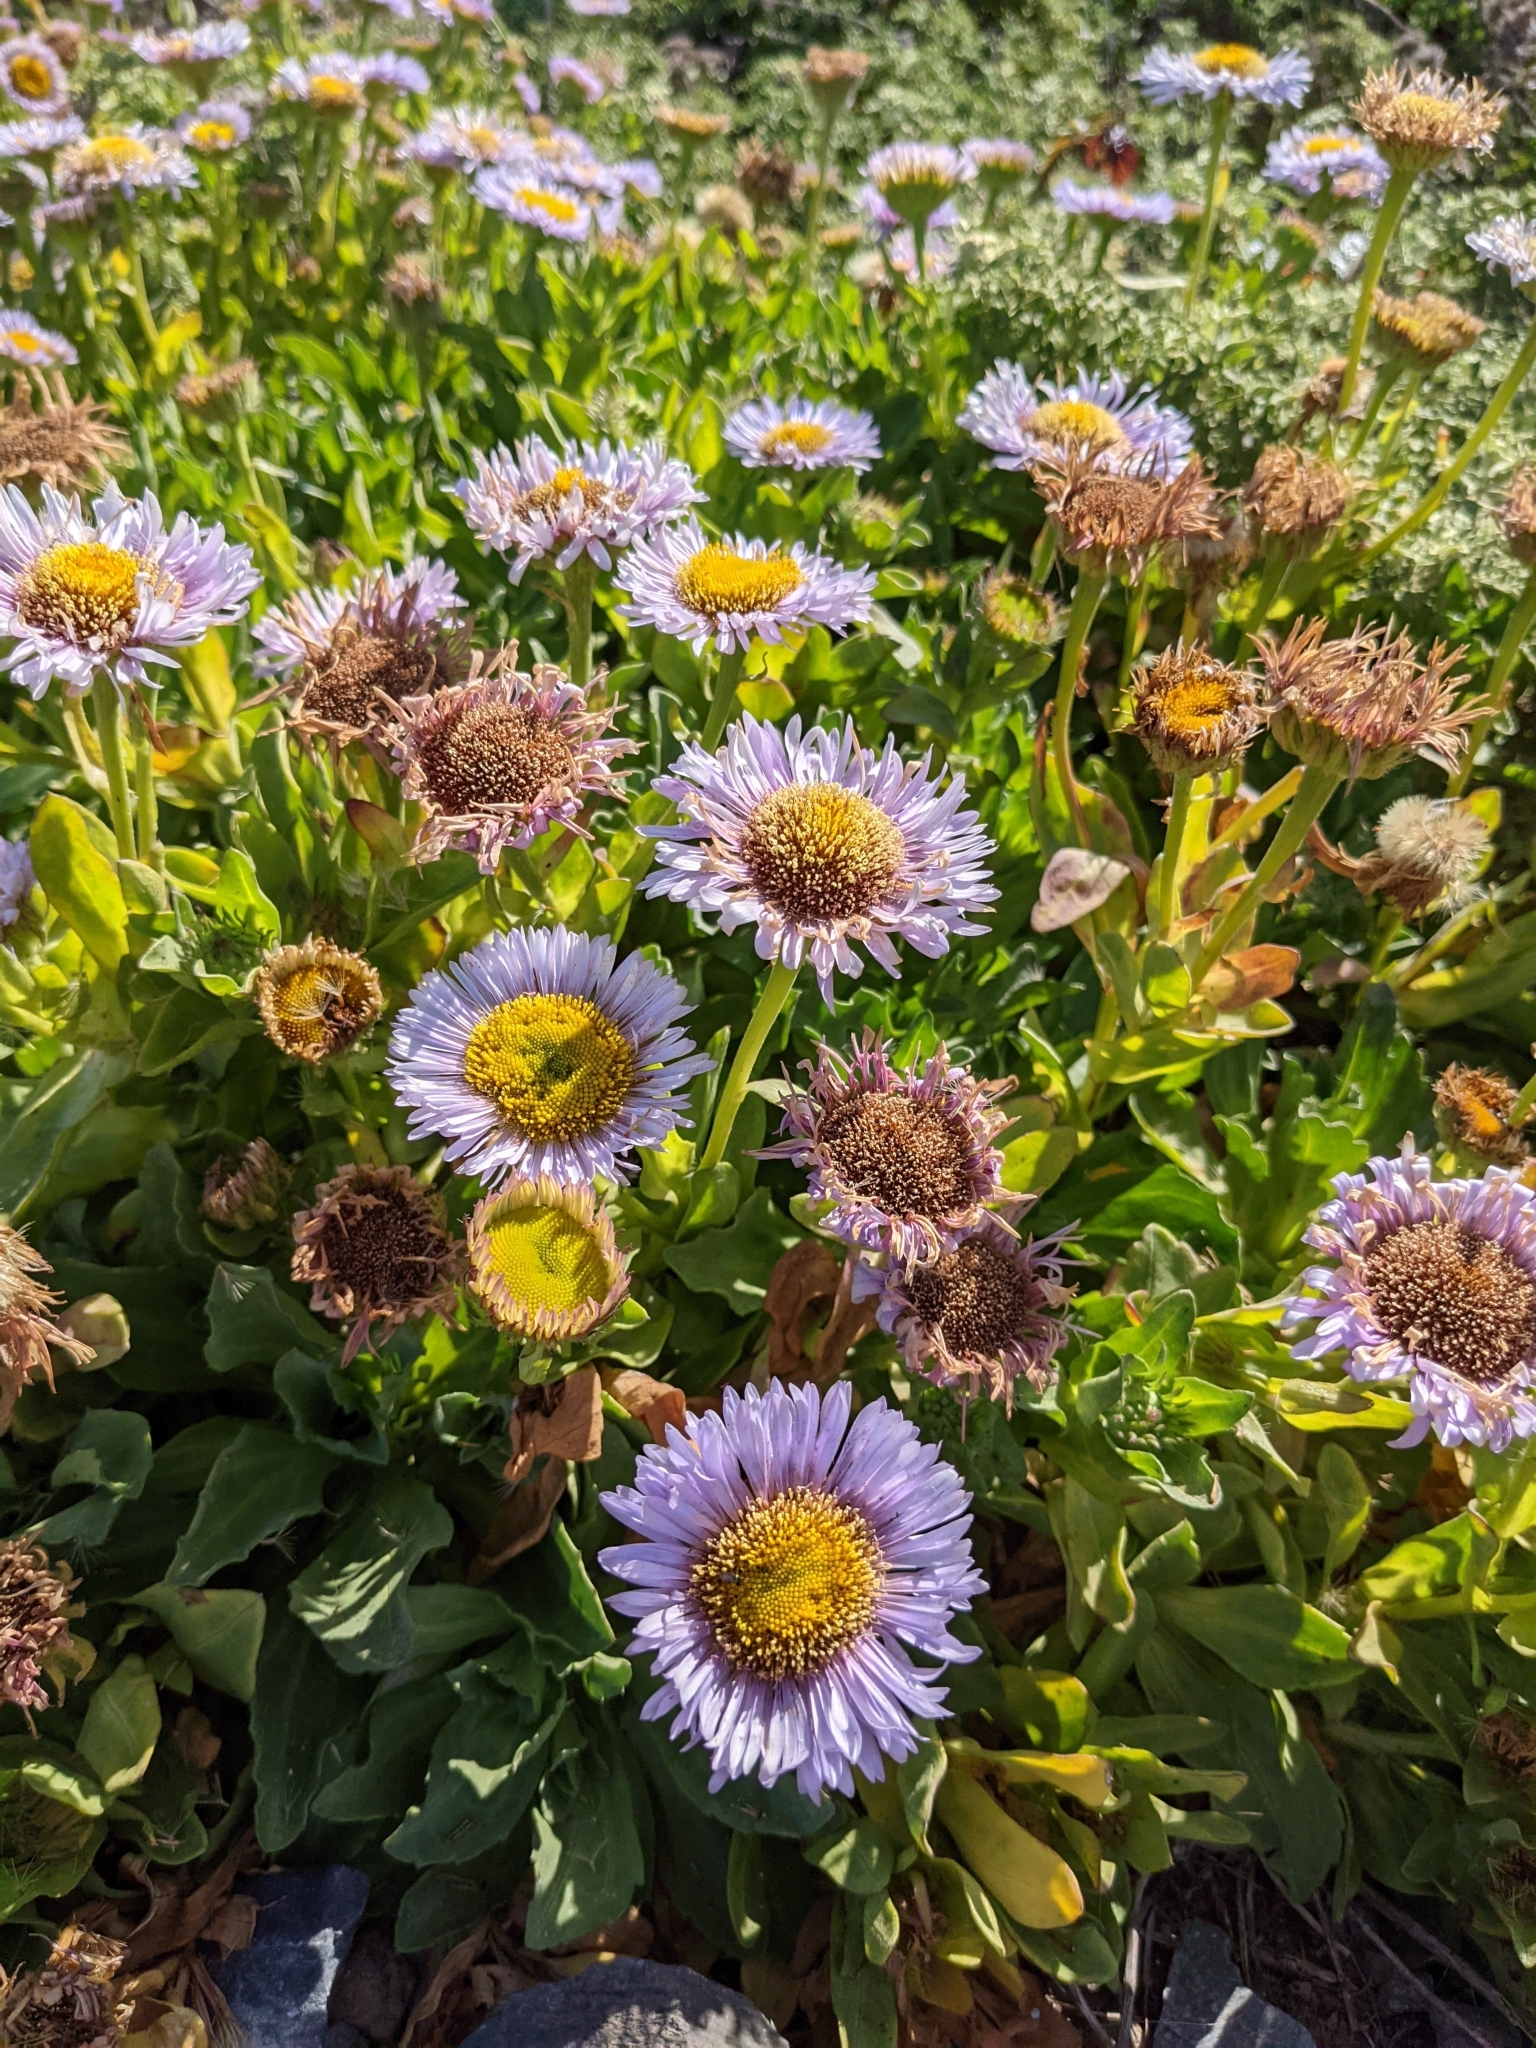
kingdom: Plantae
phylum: Tracheophyta
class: Magnoliopsida
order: Asterales
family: Asteraceae
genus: Erigeron
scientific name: Erigeron glaucus
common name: Seaside daisy
